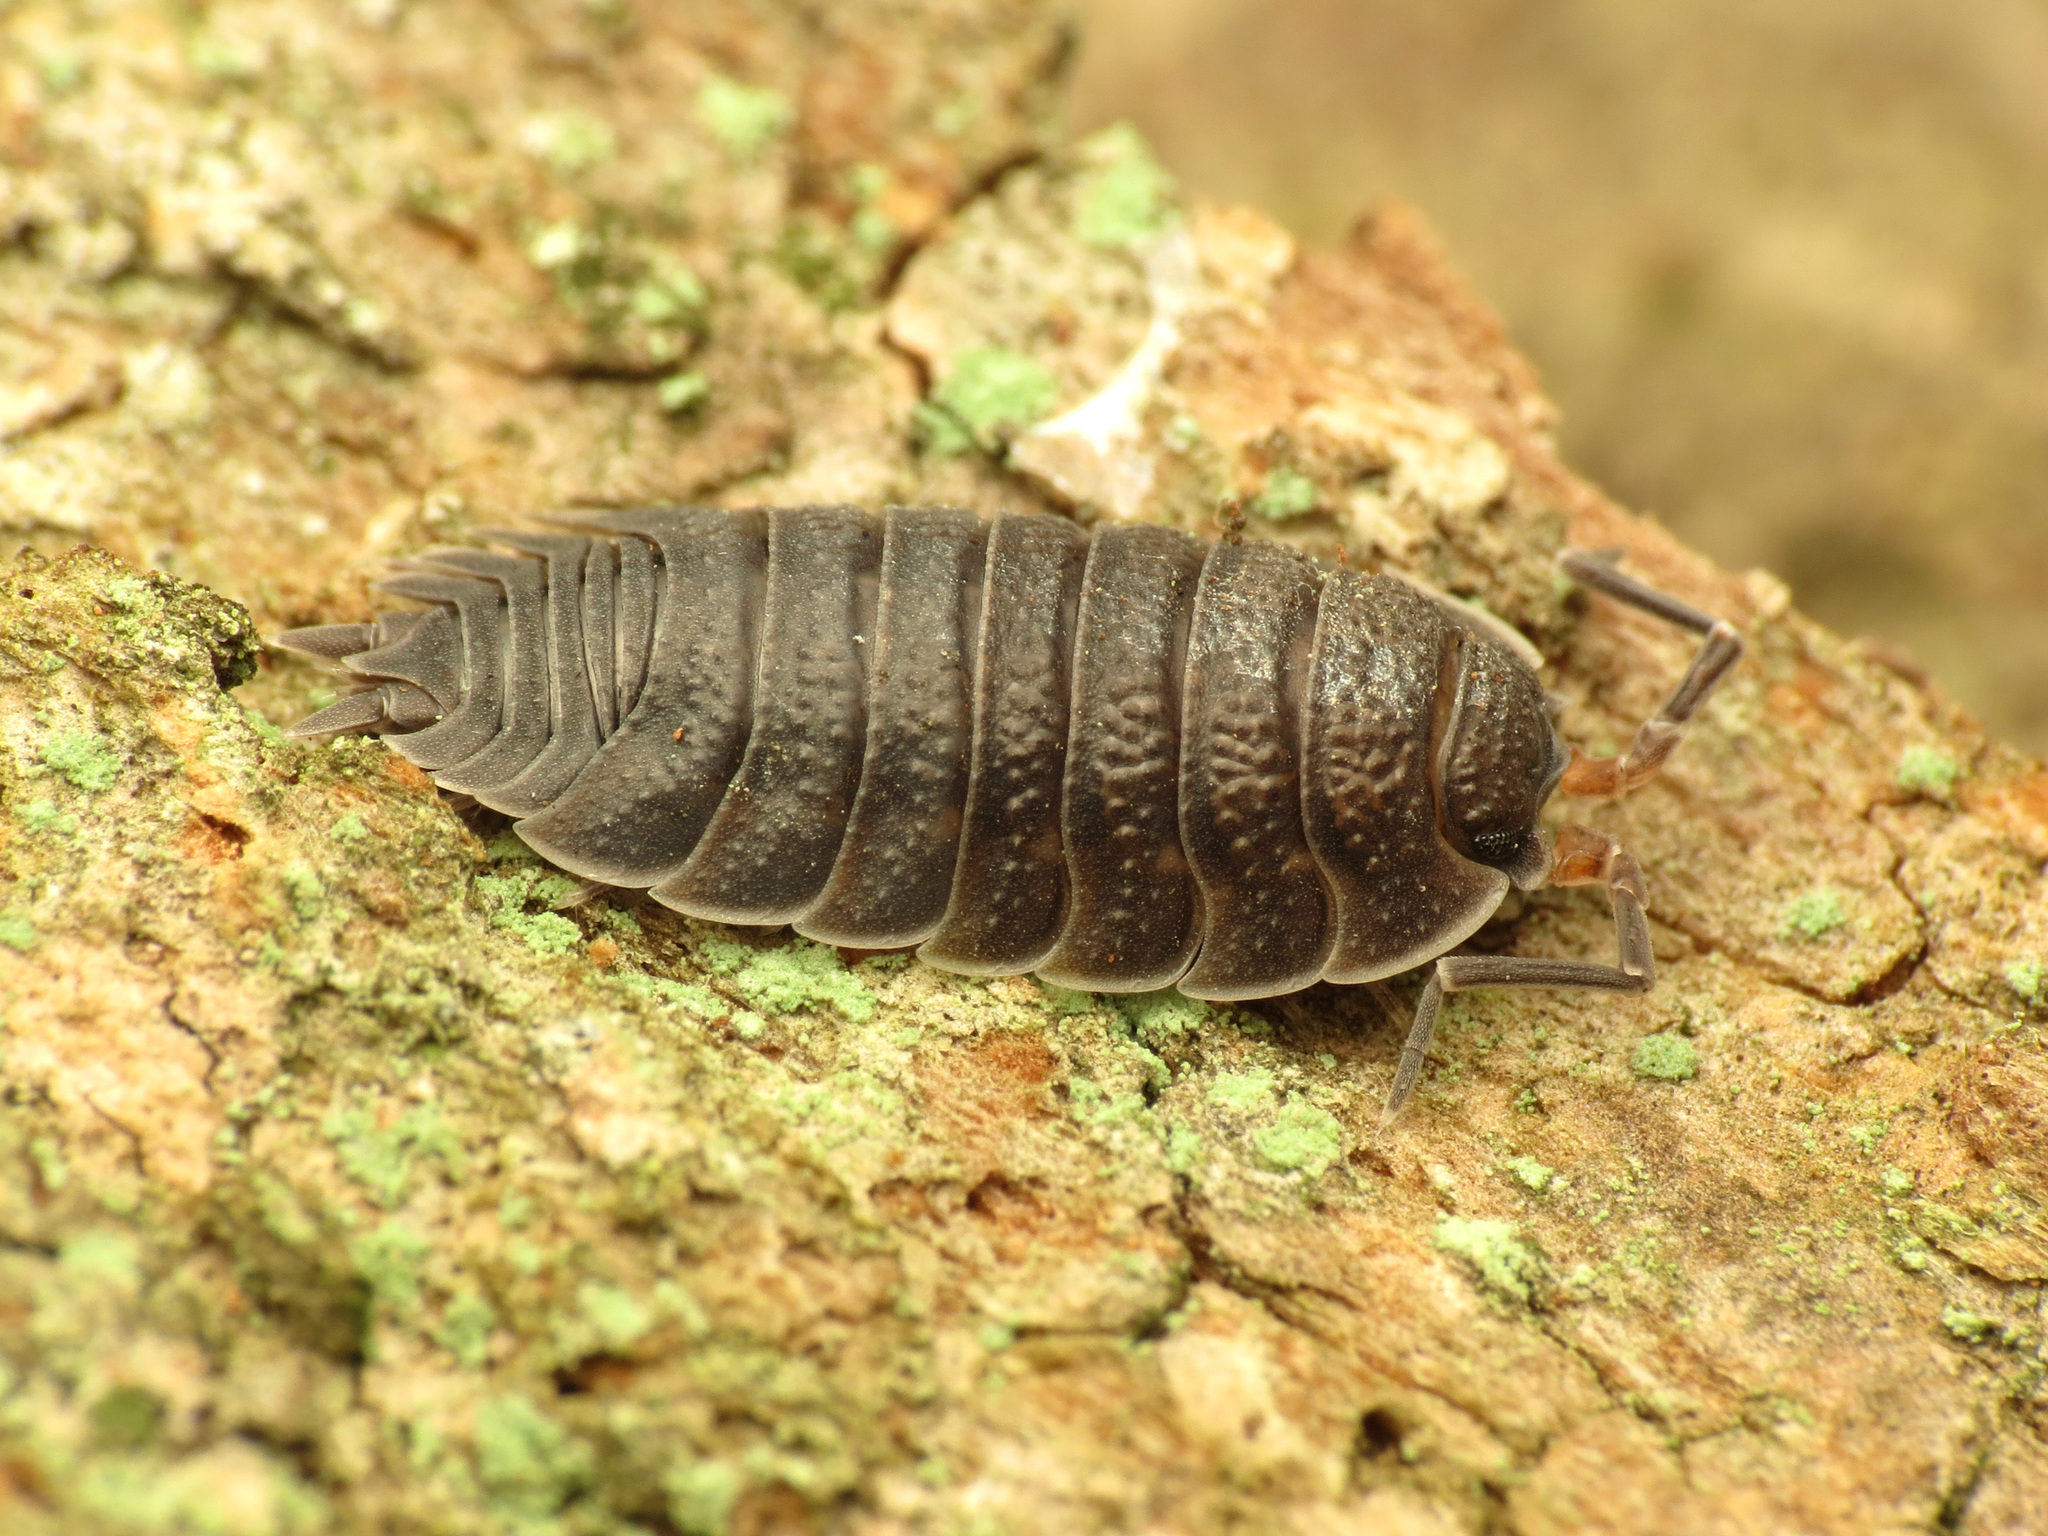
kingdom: Animalia
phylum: Arthropoda
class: Malacostraca
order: Isopoda
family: Porcellionidae
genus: Porcellio
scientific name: Porcellio scaber
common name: Common rough woodlouse
